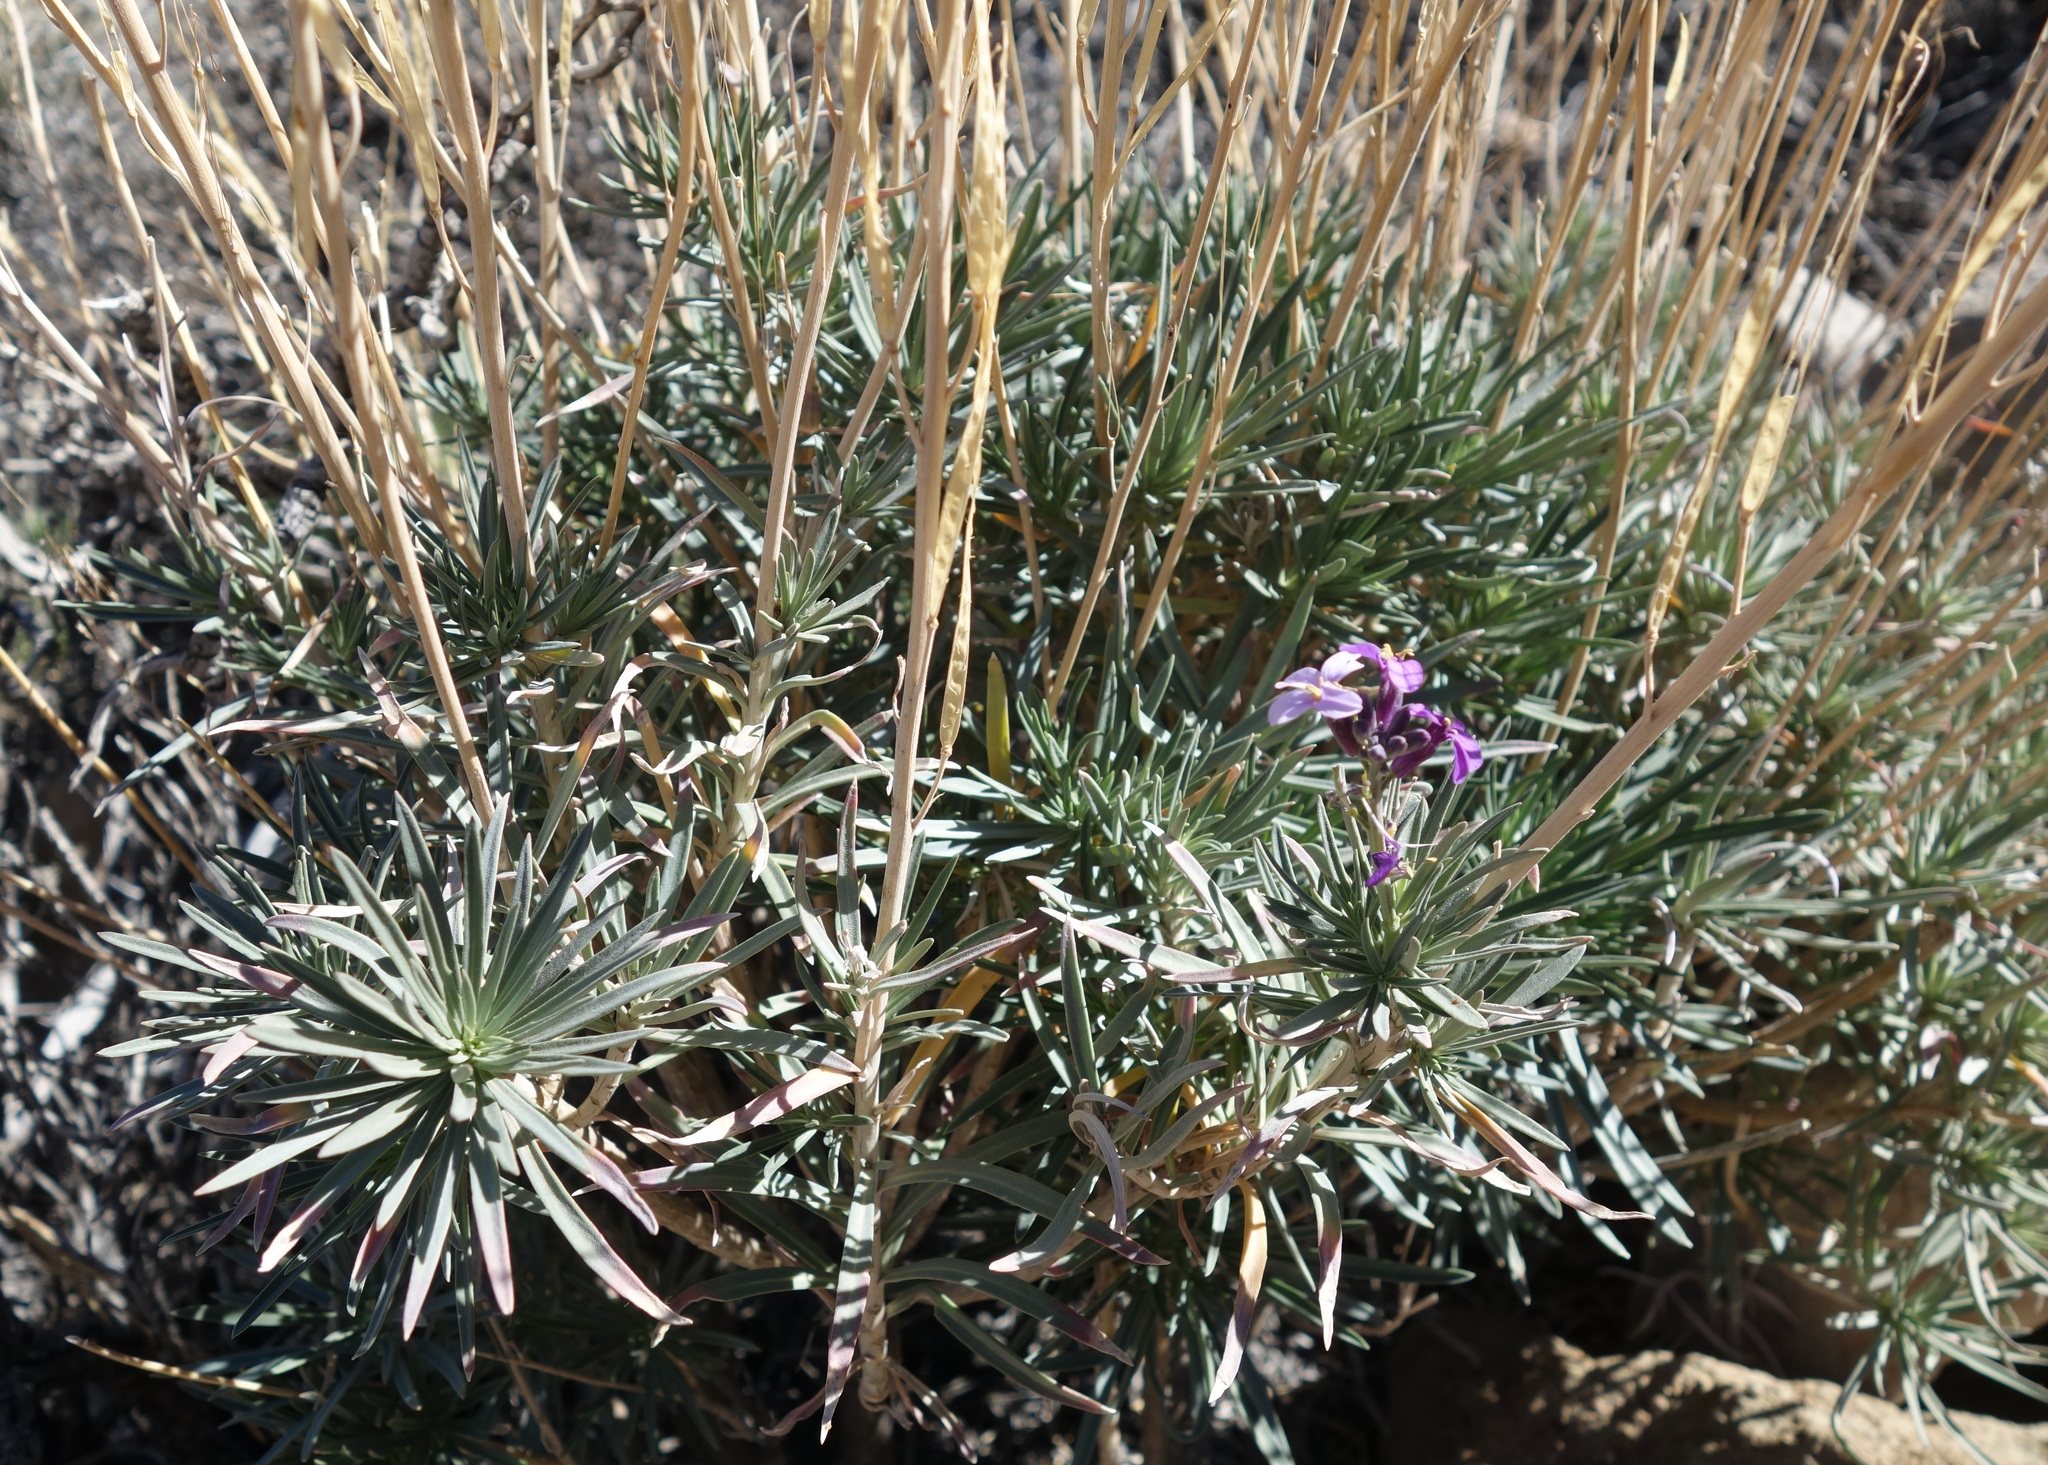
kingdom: Plantae
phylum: Tracheophyta
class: Magnoliopsida
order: Brassicales
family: Brassicaceae
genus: Erysimum
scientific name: Erysimum scoparium
